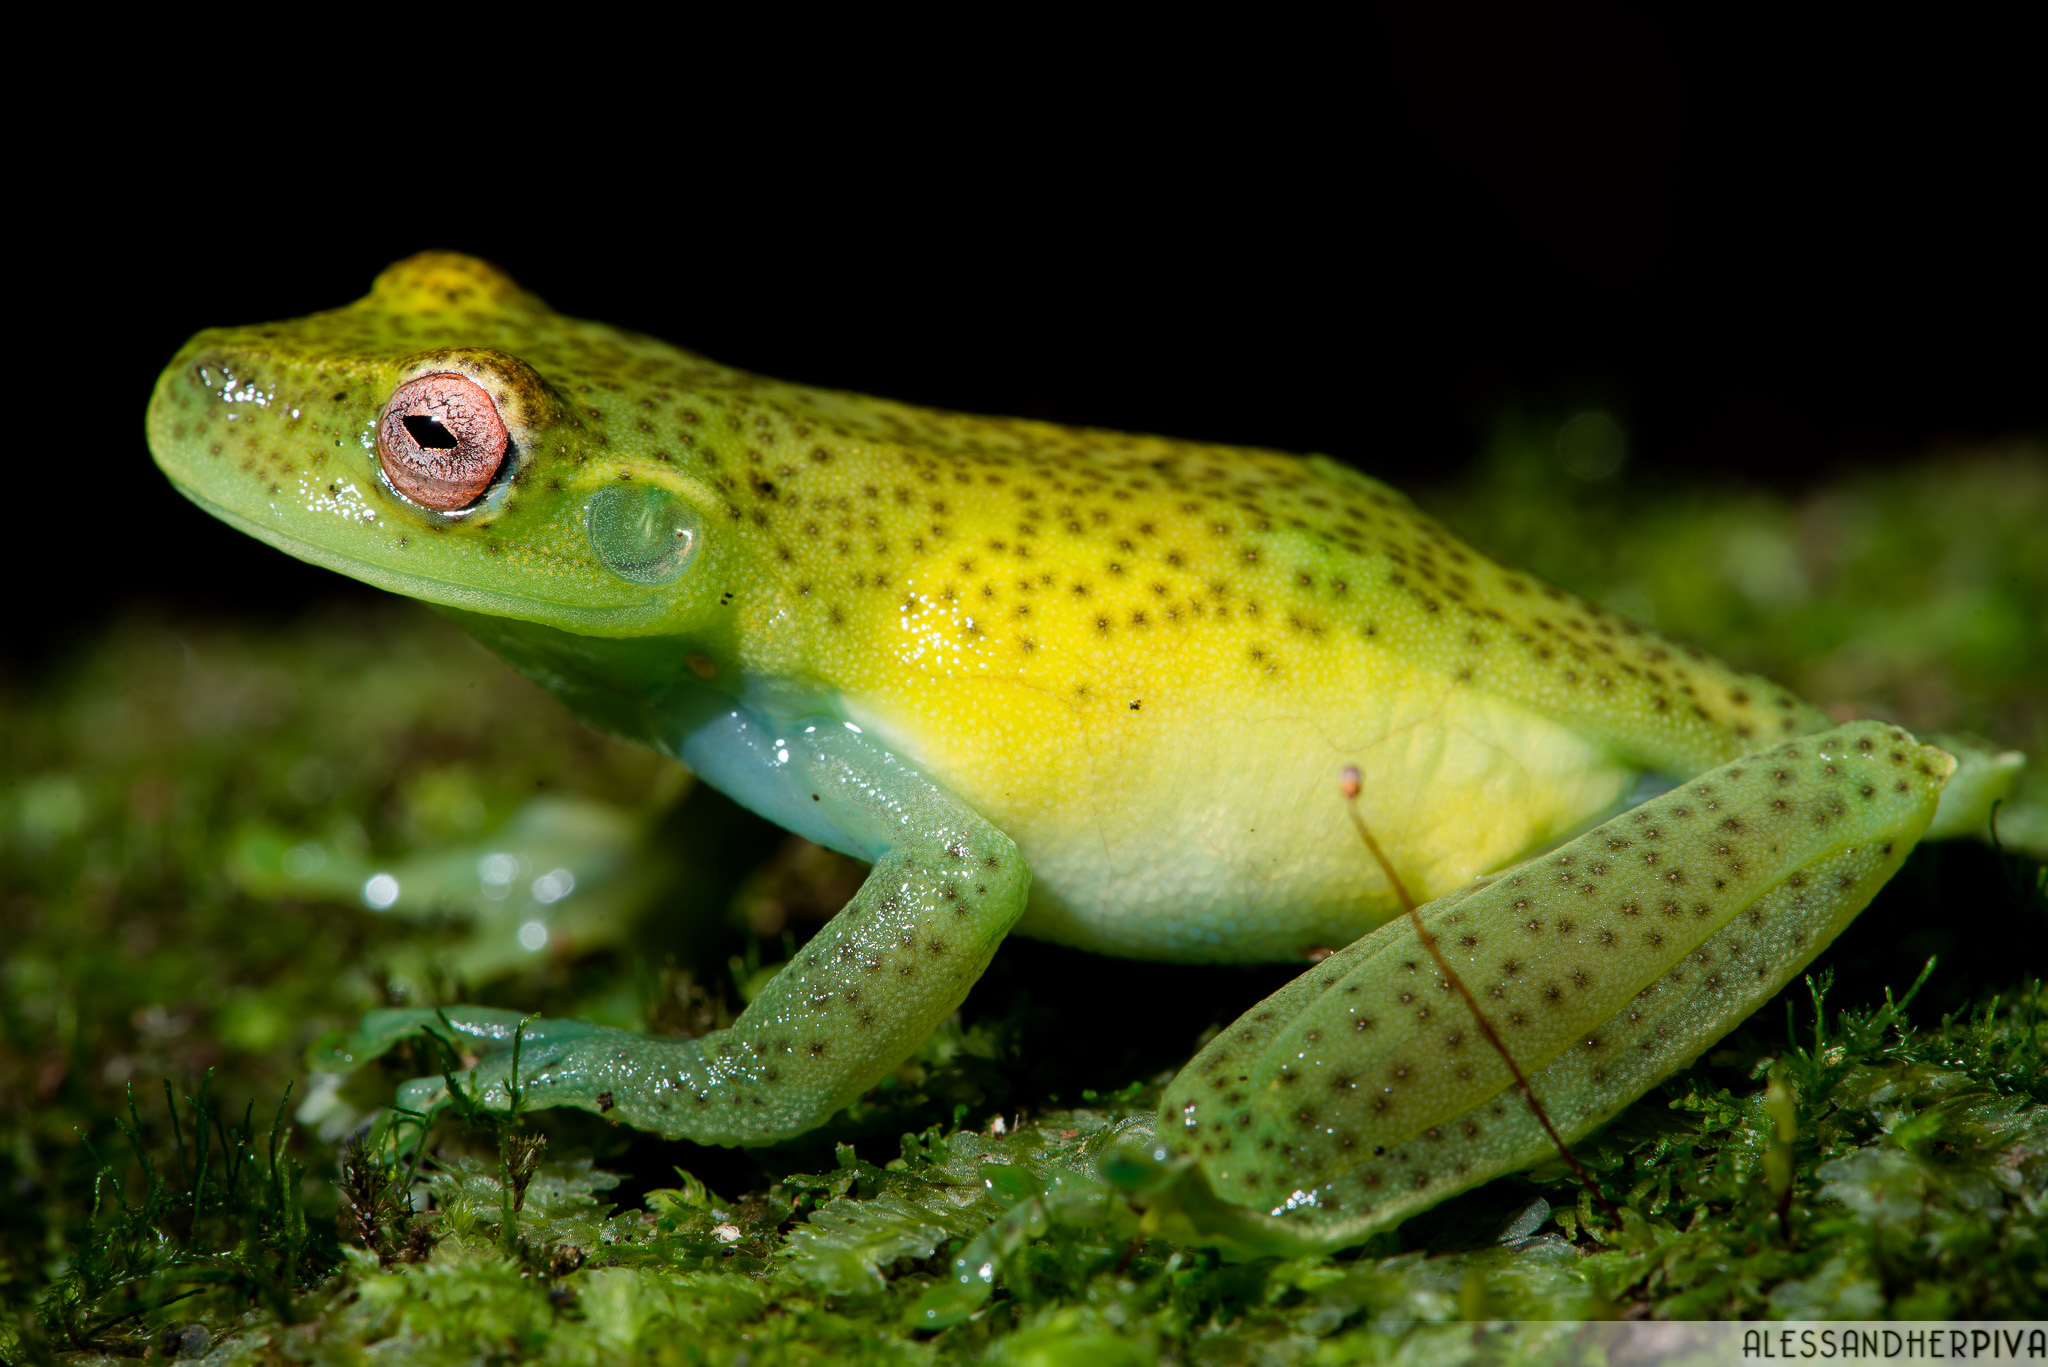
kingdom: Animalia
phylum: Chordata
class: Amphibia
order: Anura
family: Hylidae
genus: Aplastodiscus
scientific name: Aplastodiscus ehrhardti
